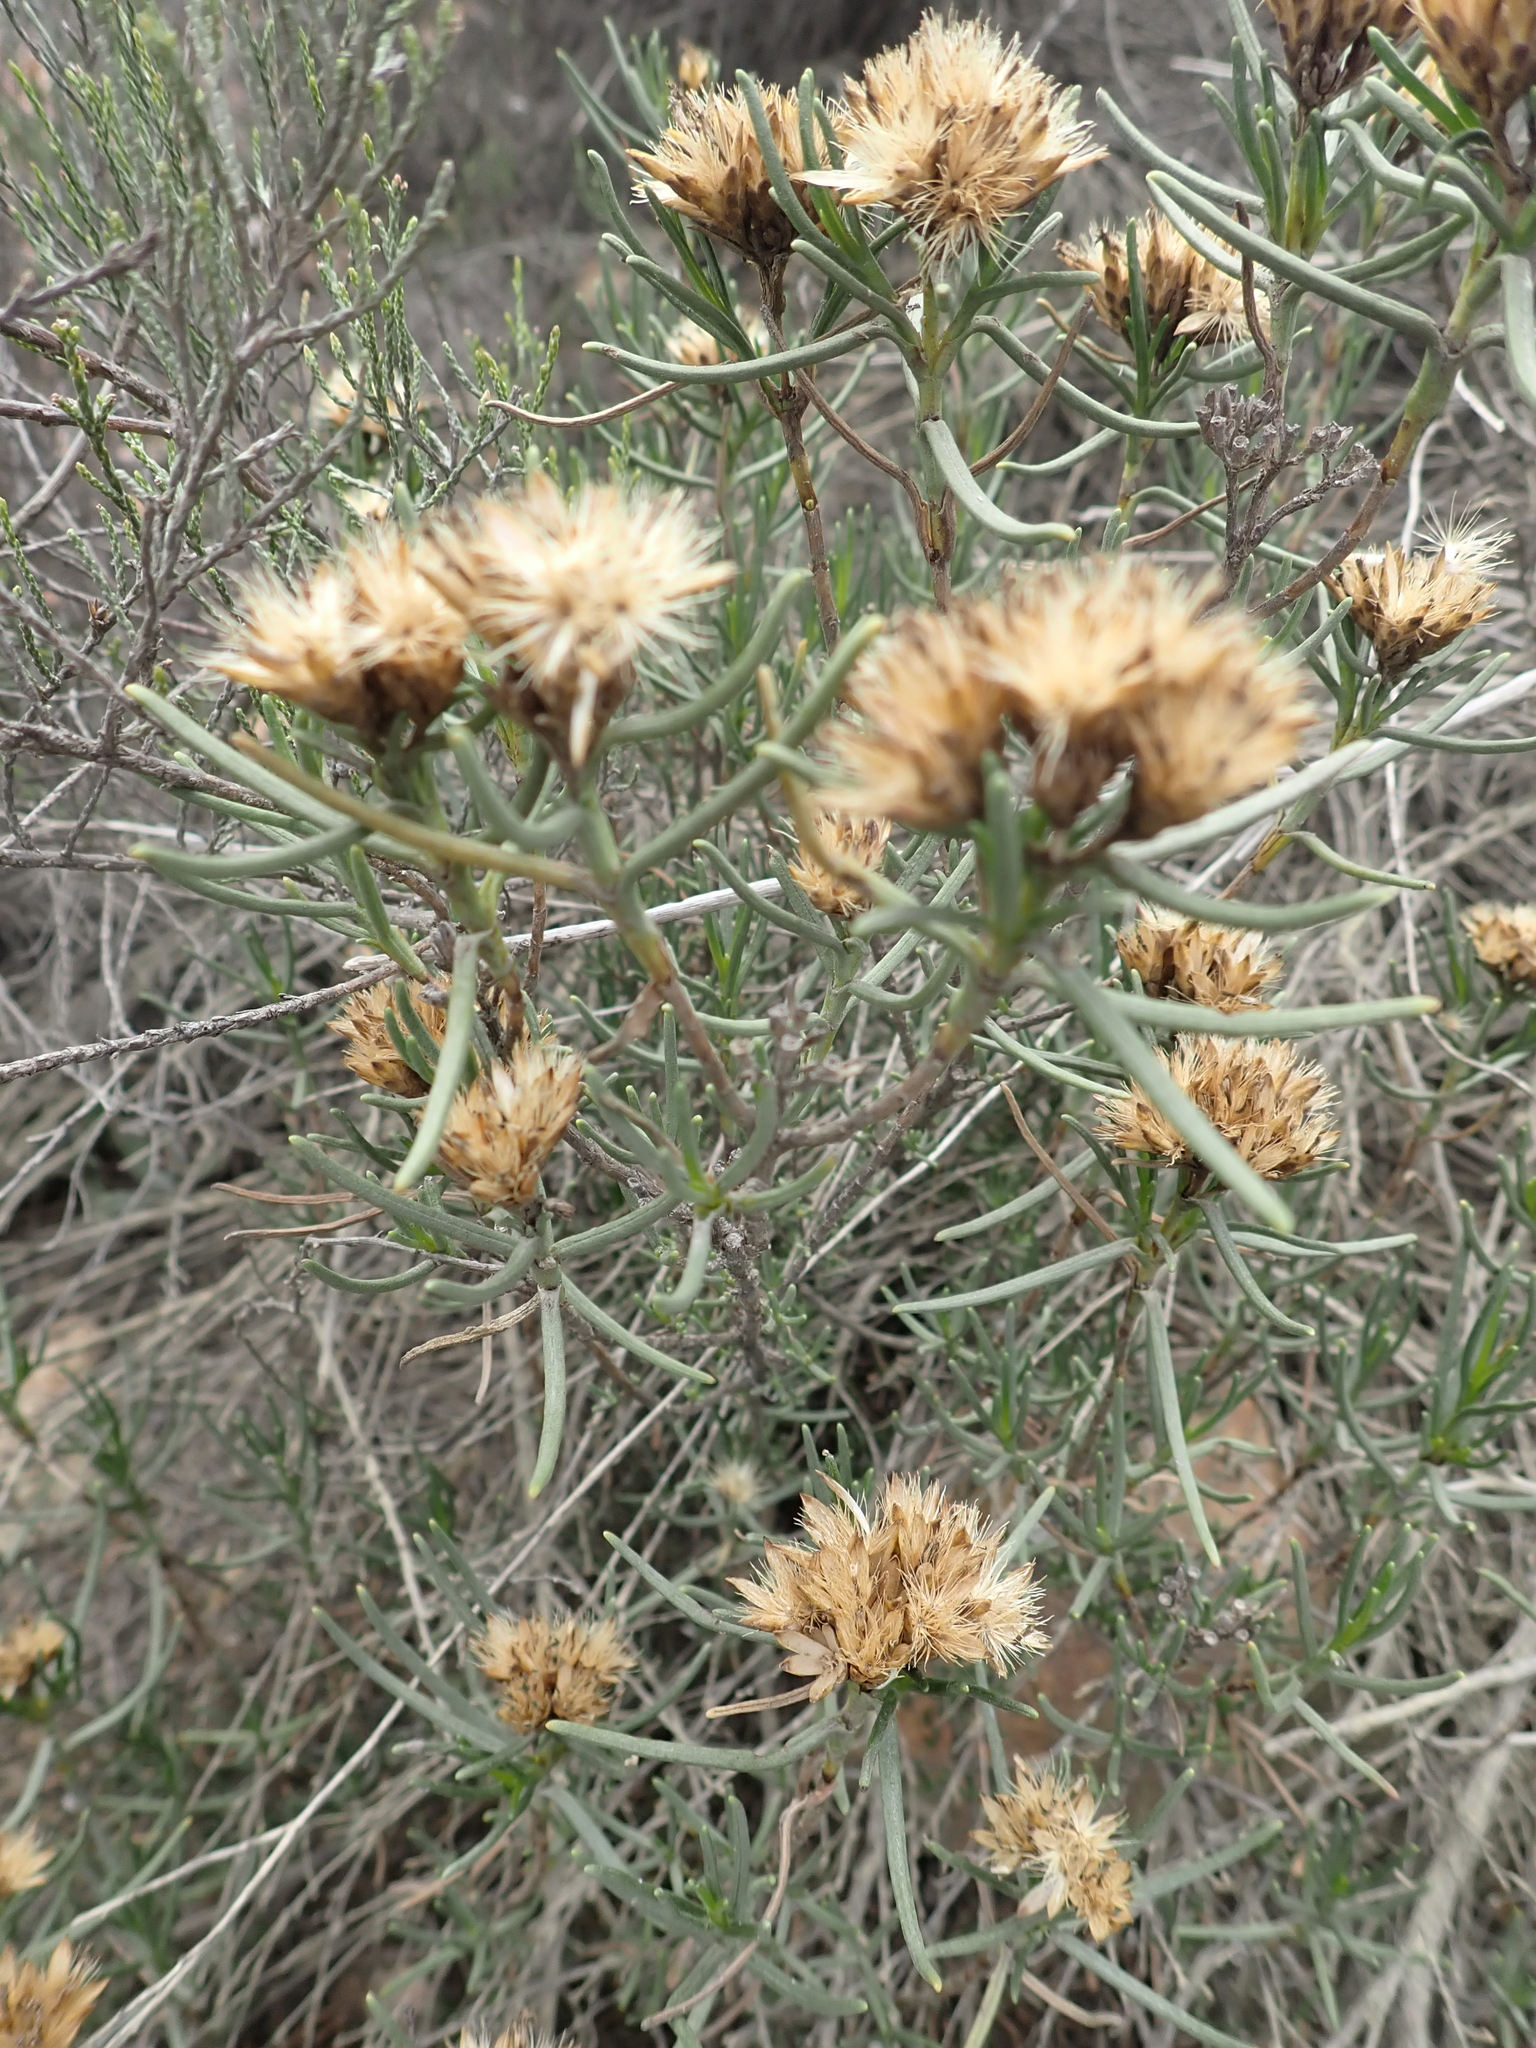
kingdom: Plantae
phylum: Tracheophyta
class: Magnoliopsida
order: Asterales
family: Asteraceae
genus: Pteronia
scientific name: Pteronia paniculata
